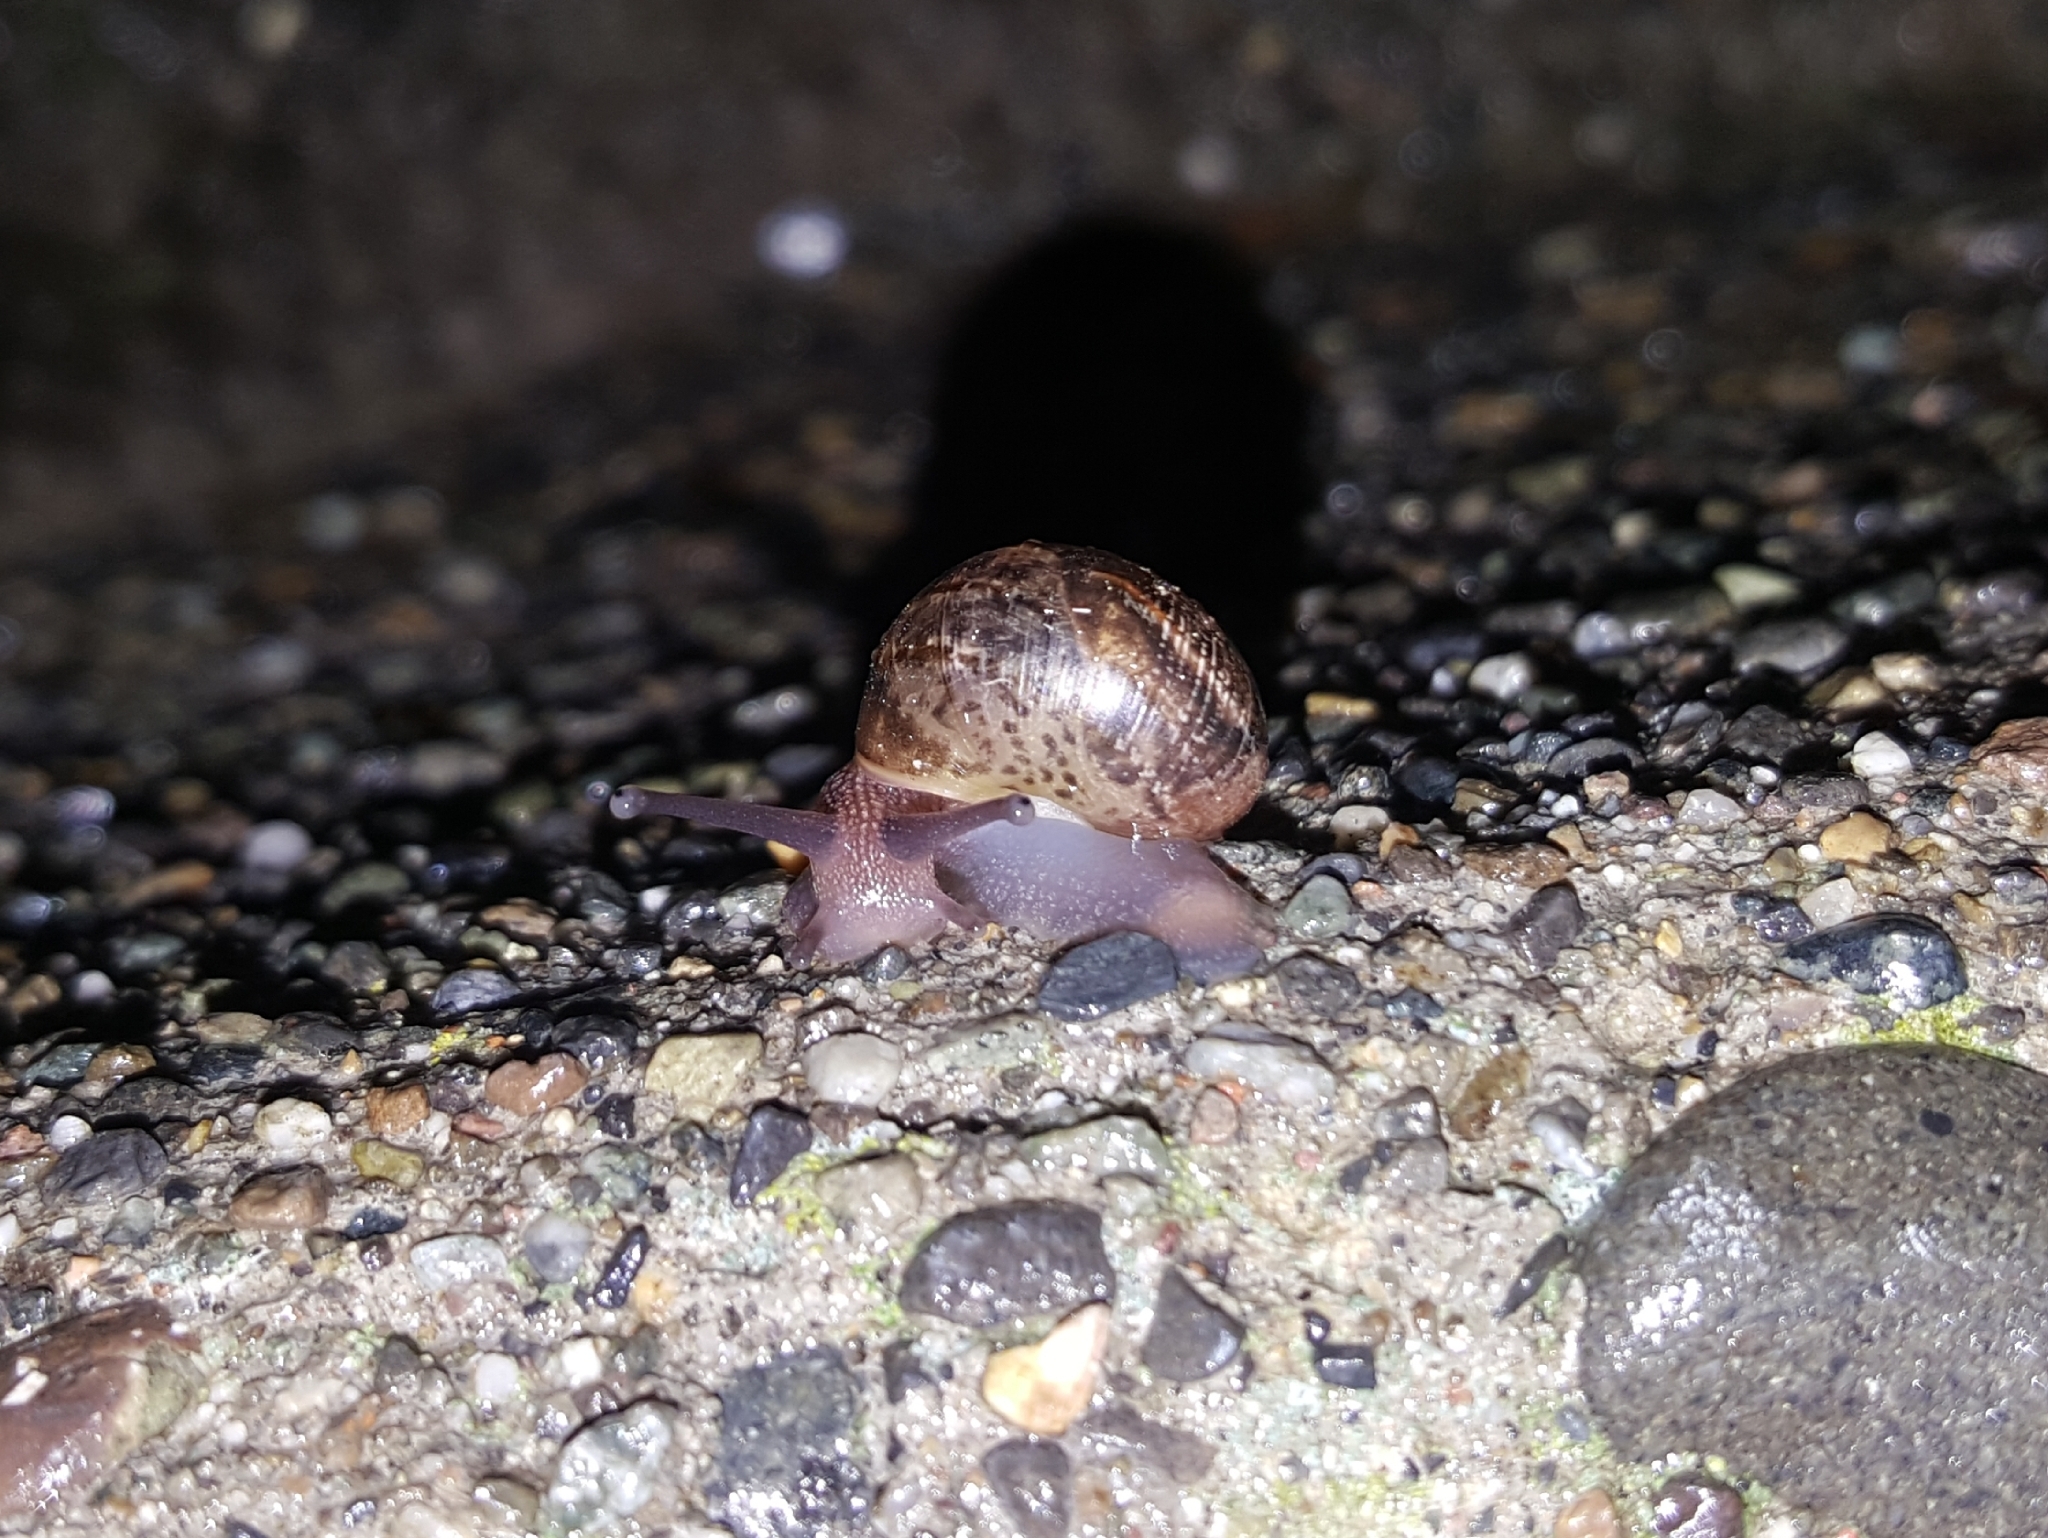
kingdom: Animalia
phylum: Mollusca
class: Gastropoda
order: Stylommatophora
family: Helicidae
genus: Cornu
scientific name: Cornu aspersum
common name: Brown garden snail
